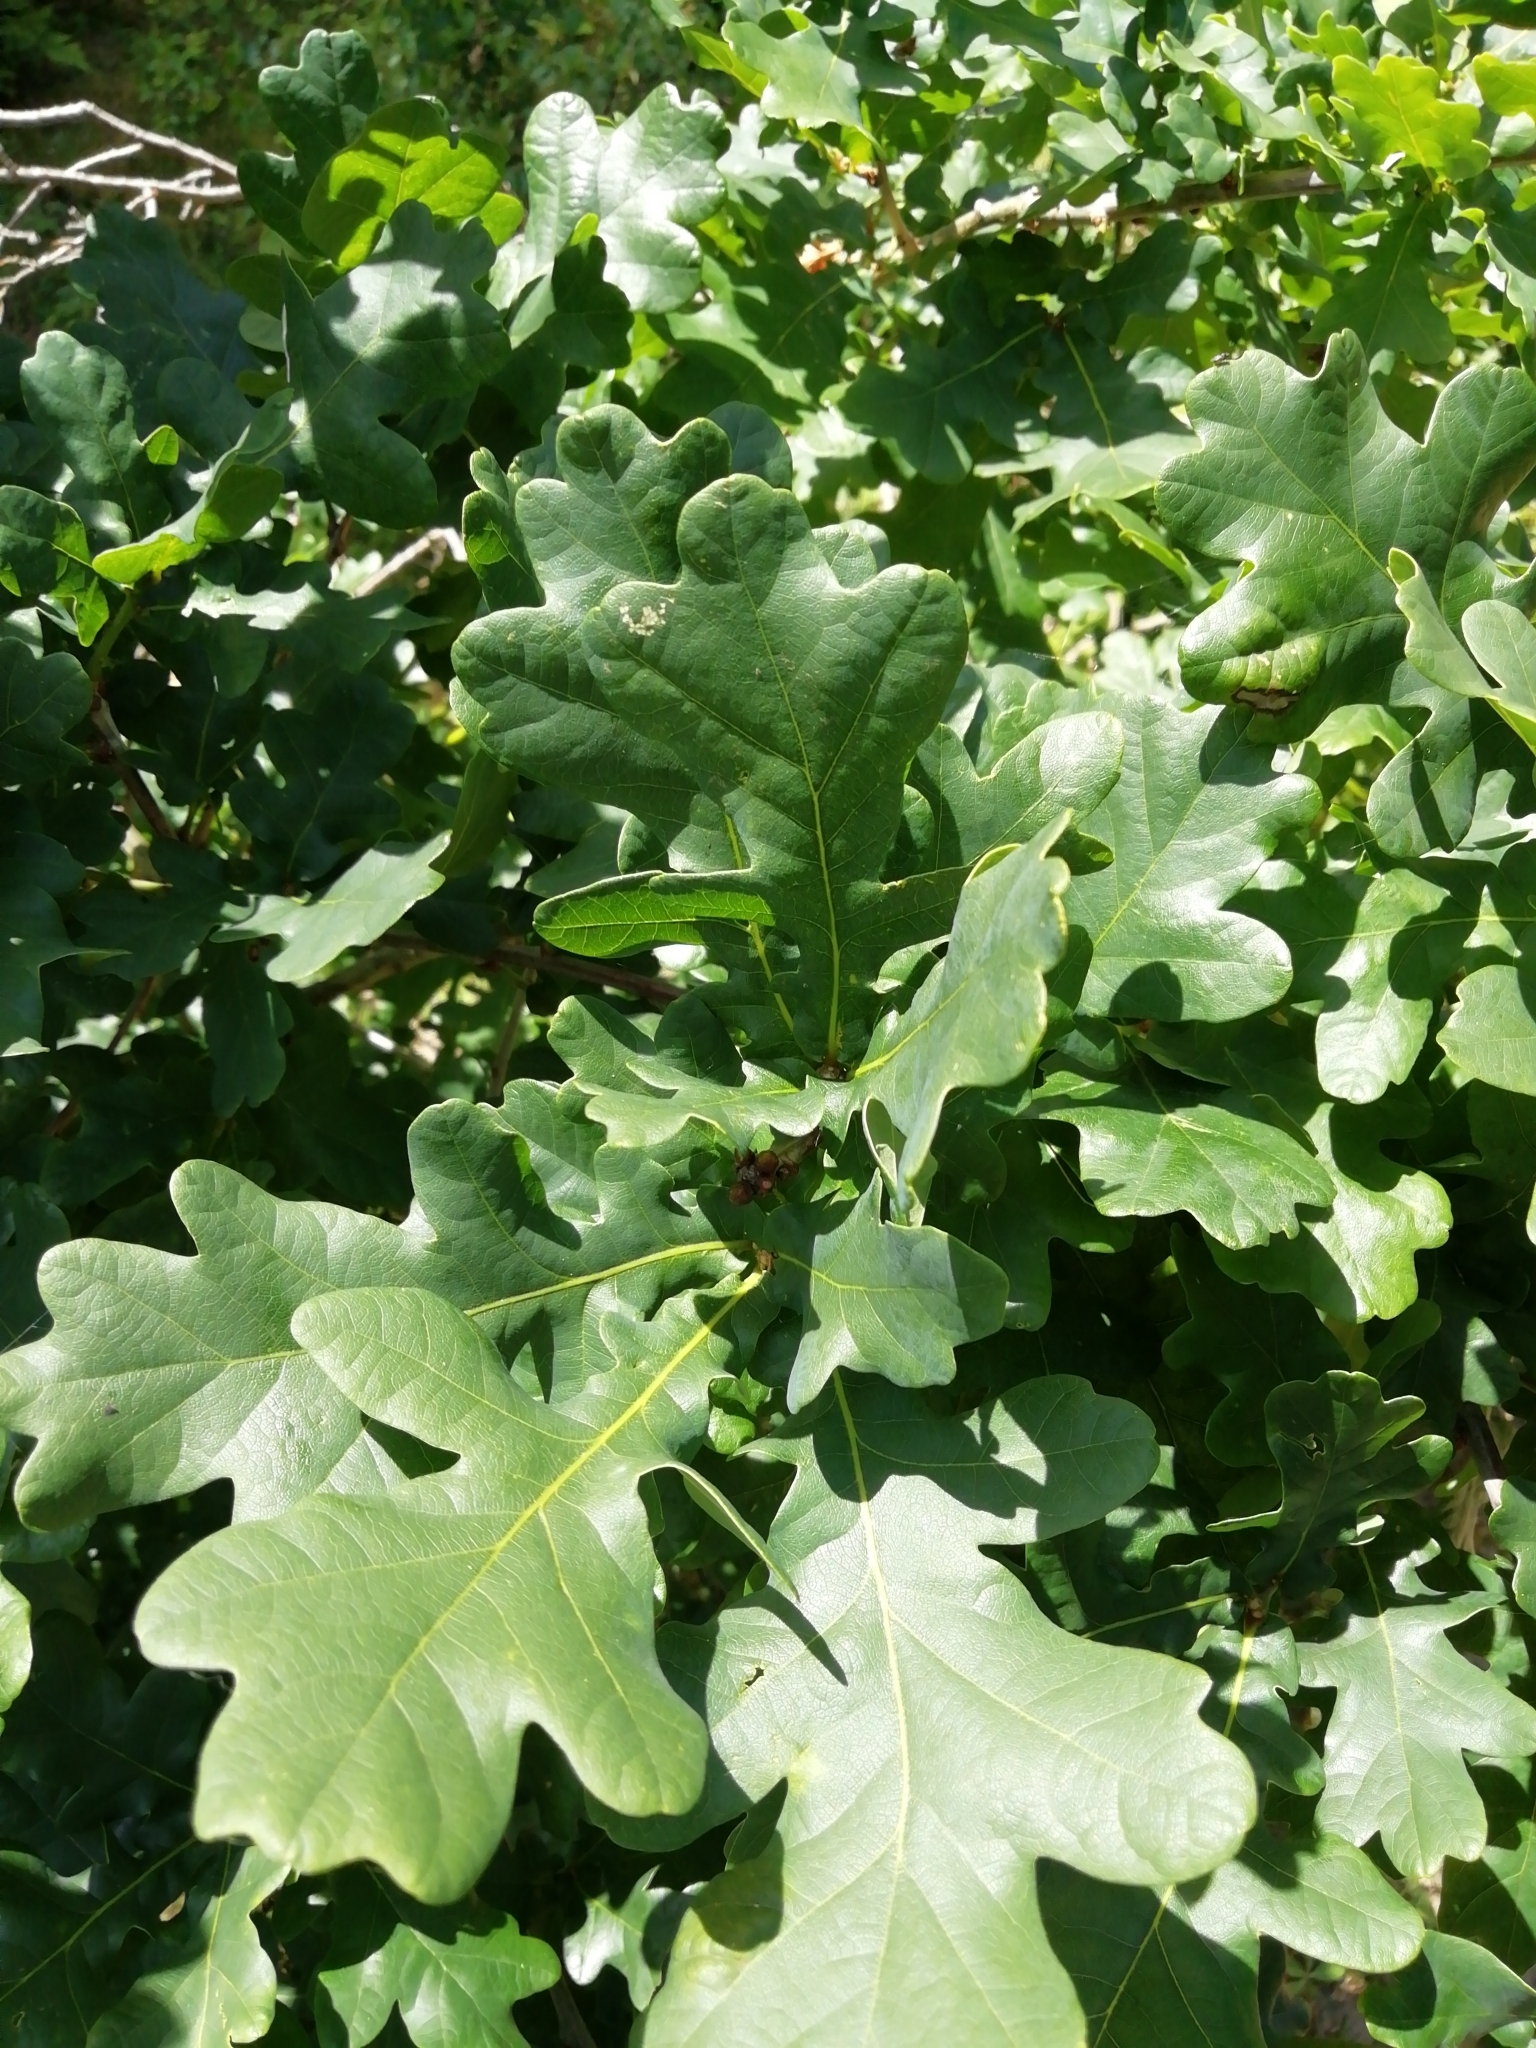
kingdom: Plantae
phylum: Tracheophyta
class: Magnoliopsida
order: Fagales
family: Fagaceae
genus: Quercus
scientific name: Quercus robur
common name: Pedunculate oak
